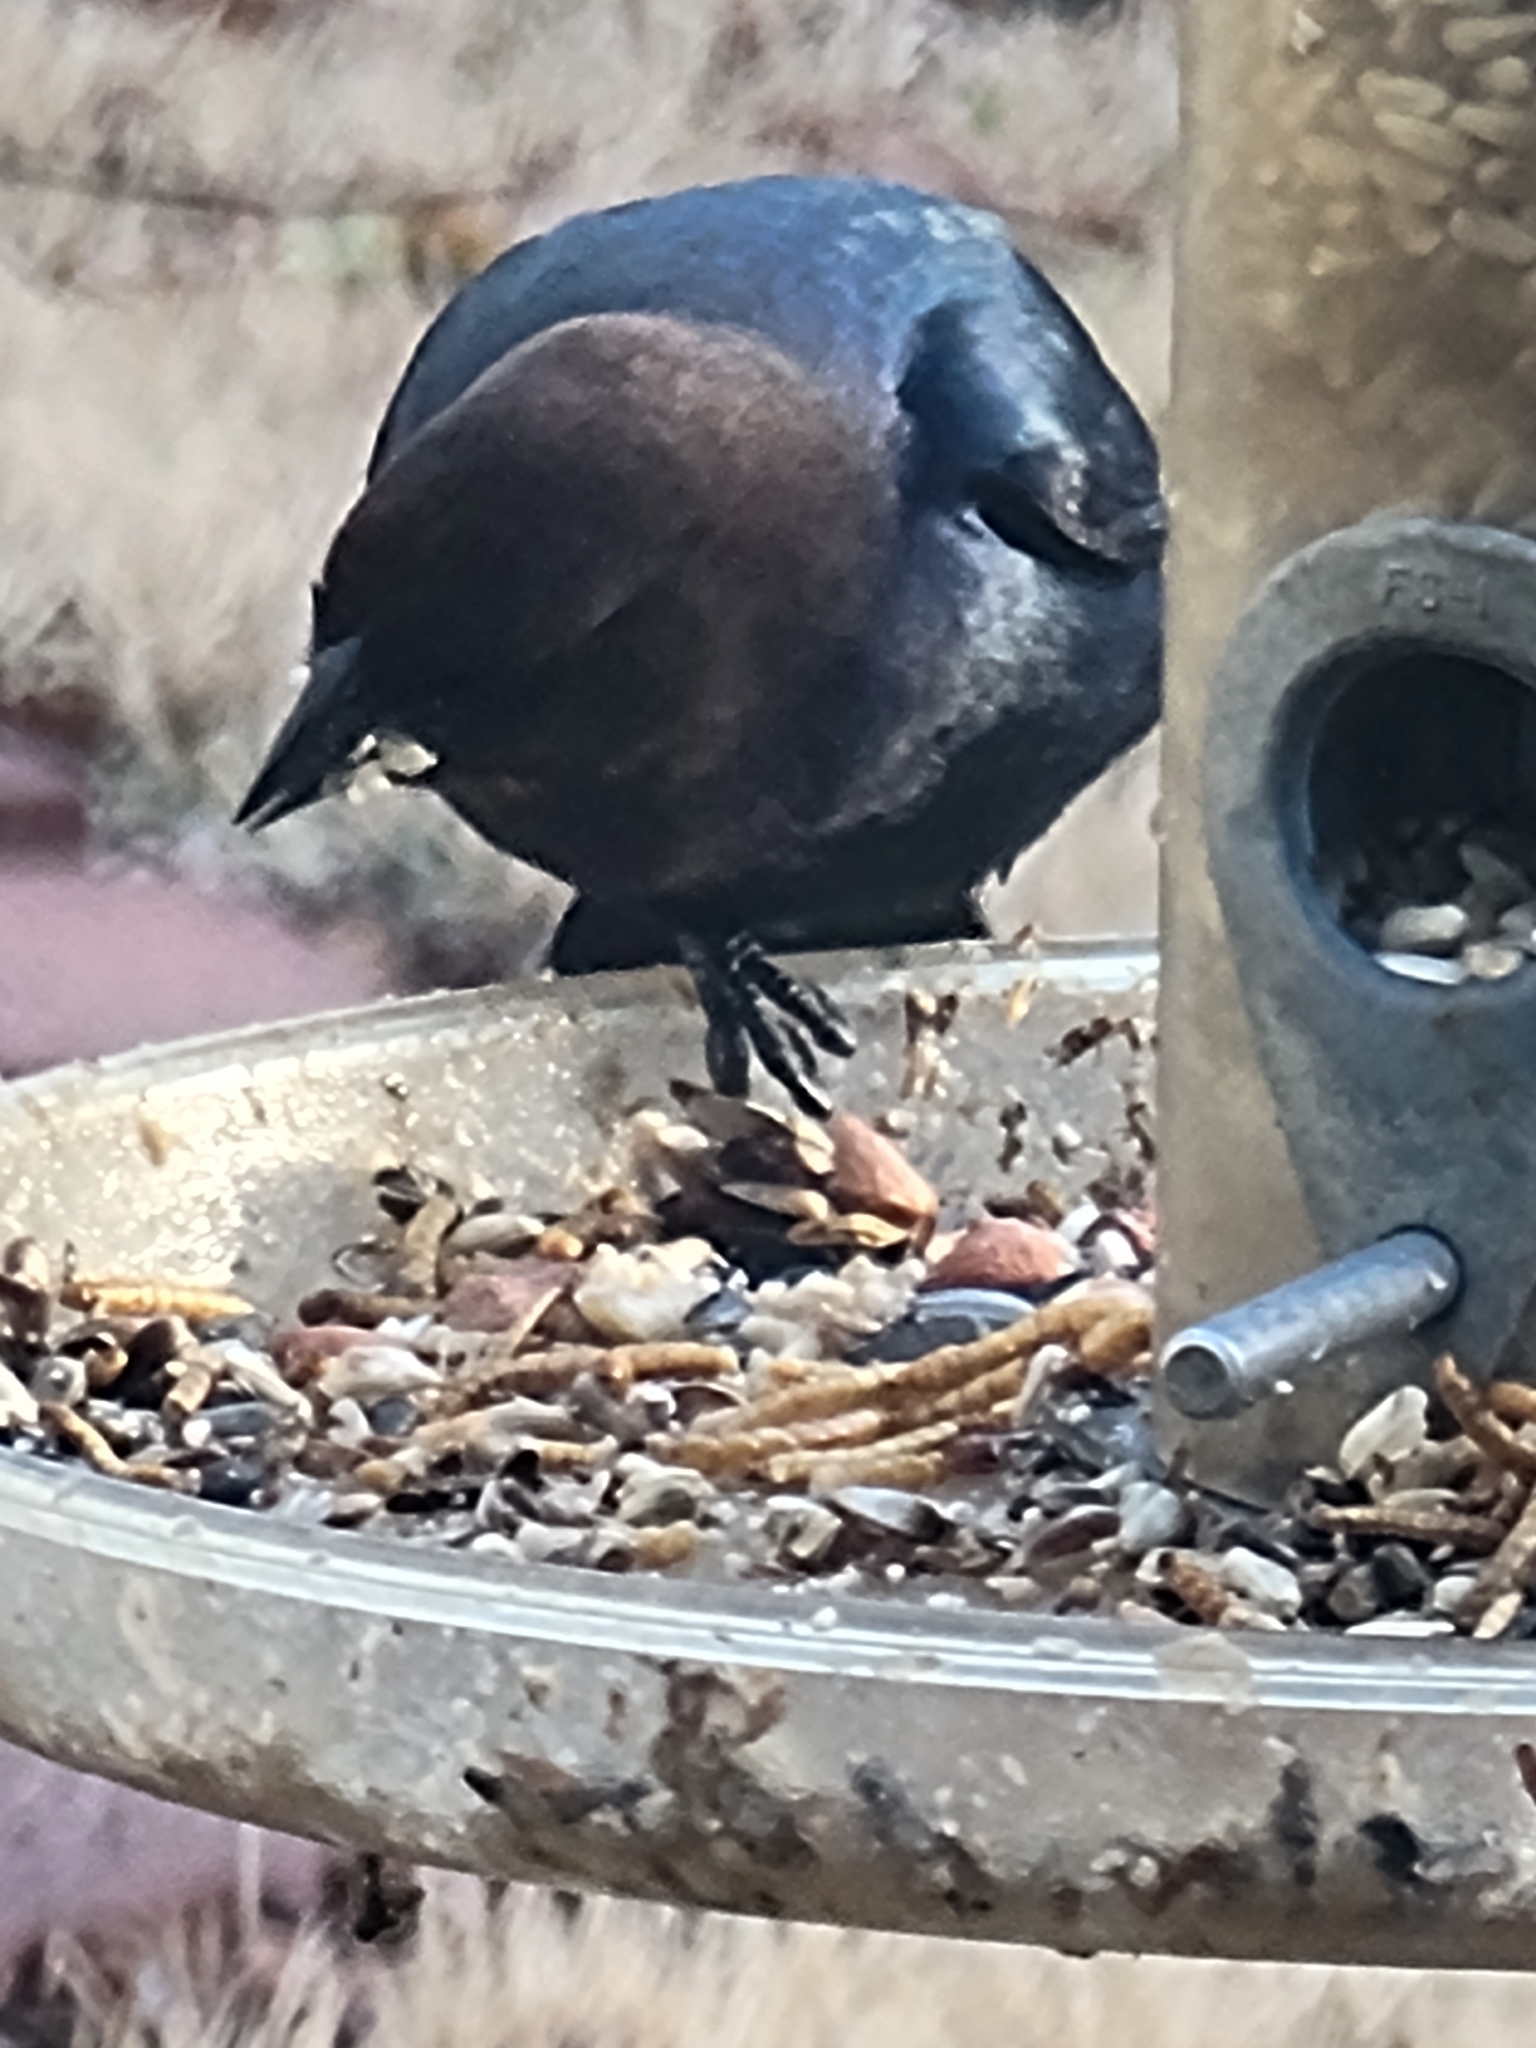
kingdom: Animalia
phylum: Chordata
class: Aves
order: Passeriformes
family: Icteridae
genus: Molothrus
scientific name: Molothrus ater
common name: Brown-headed cowbird
